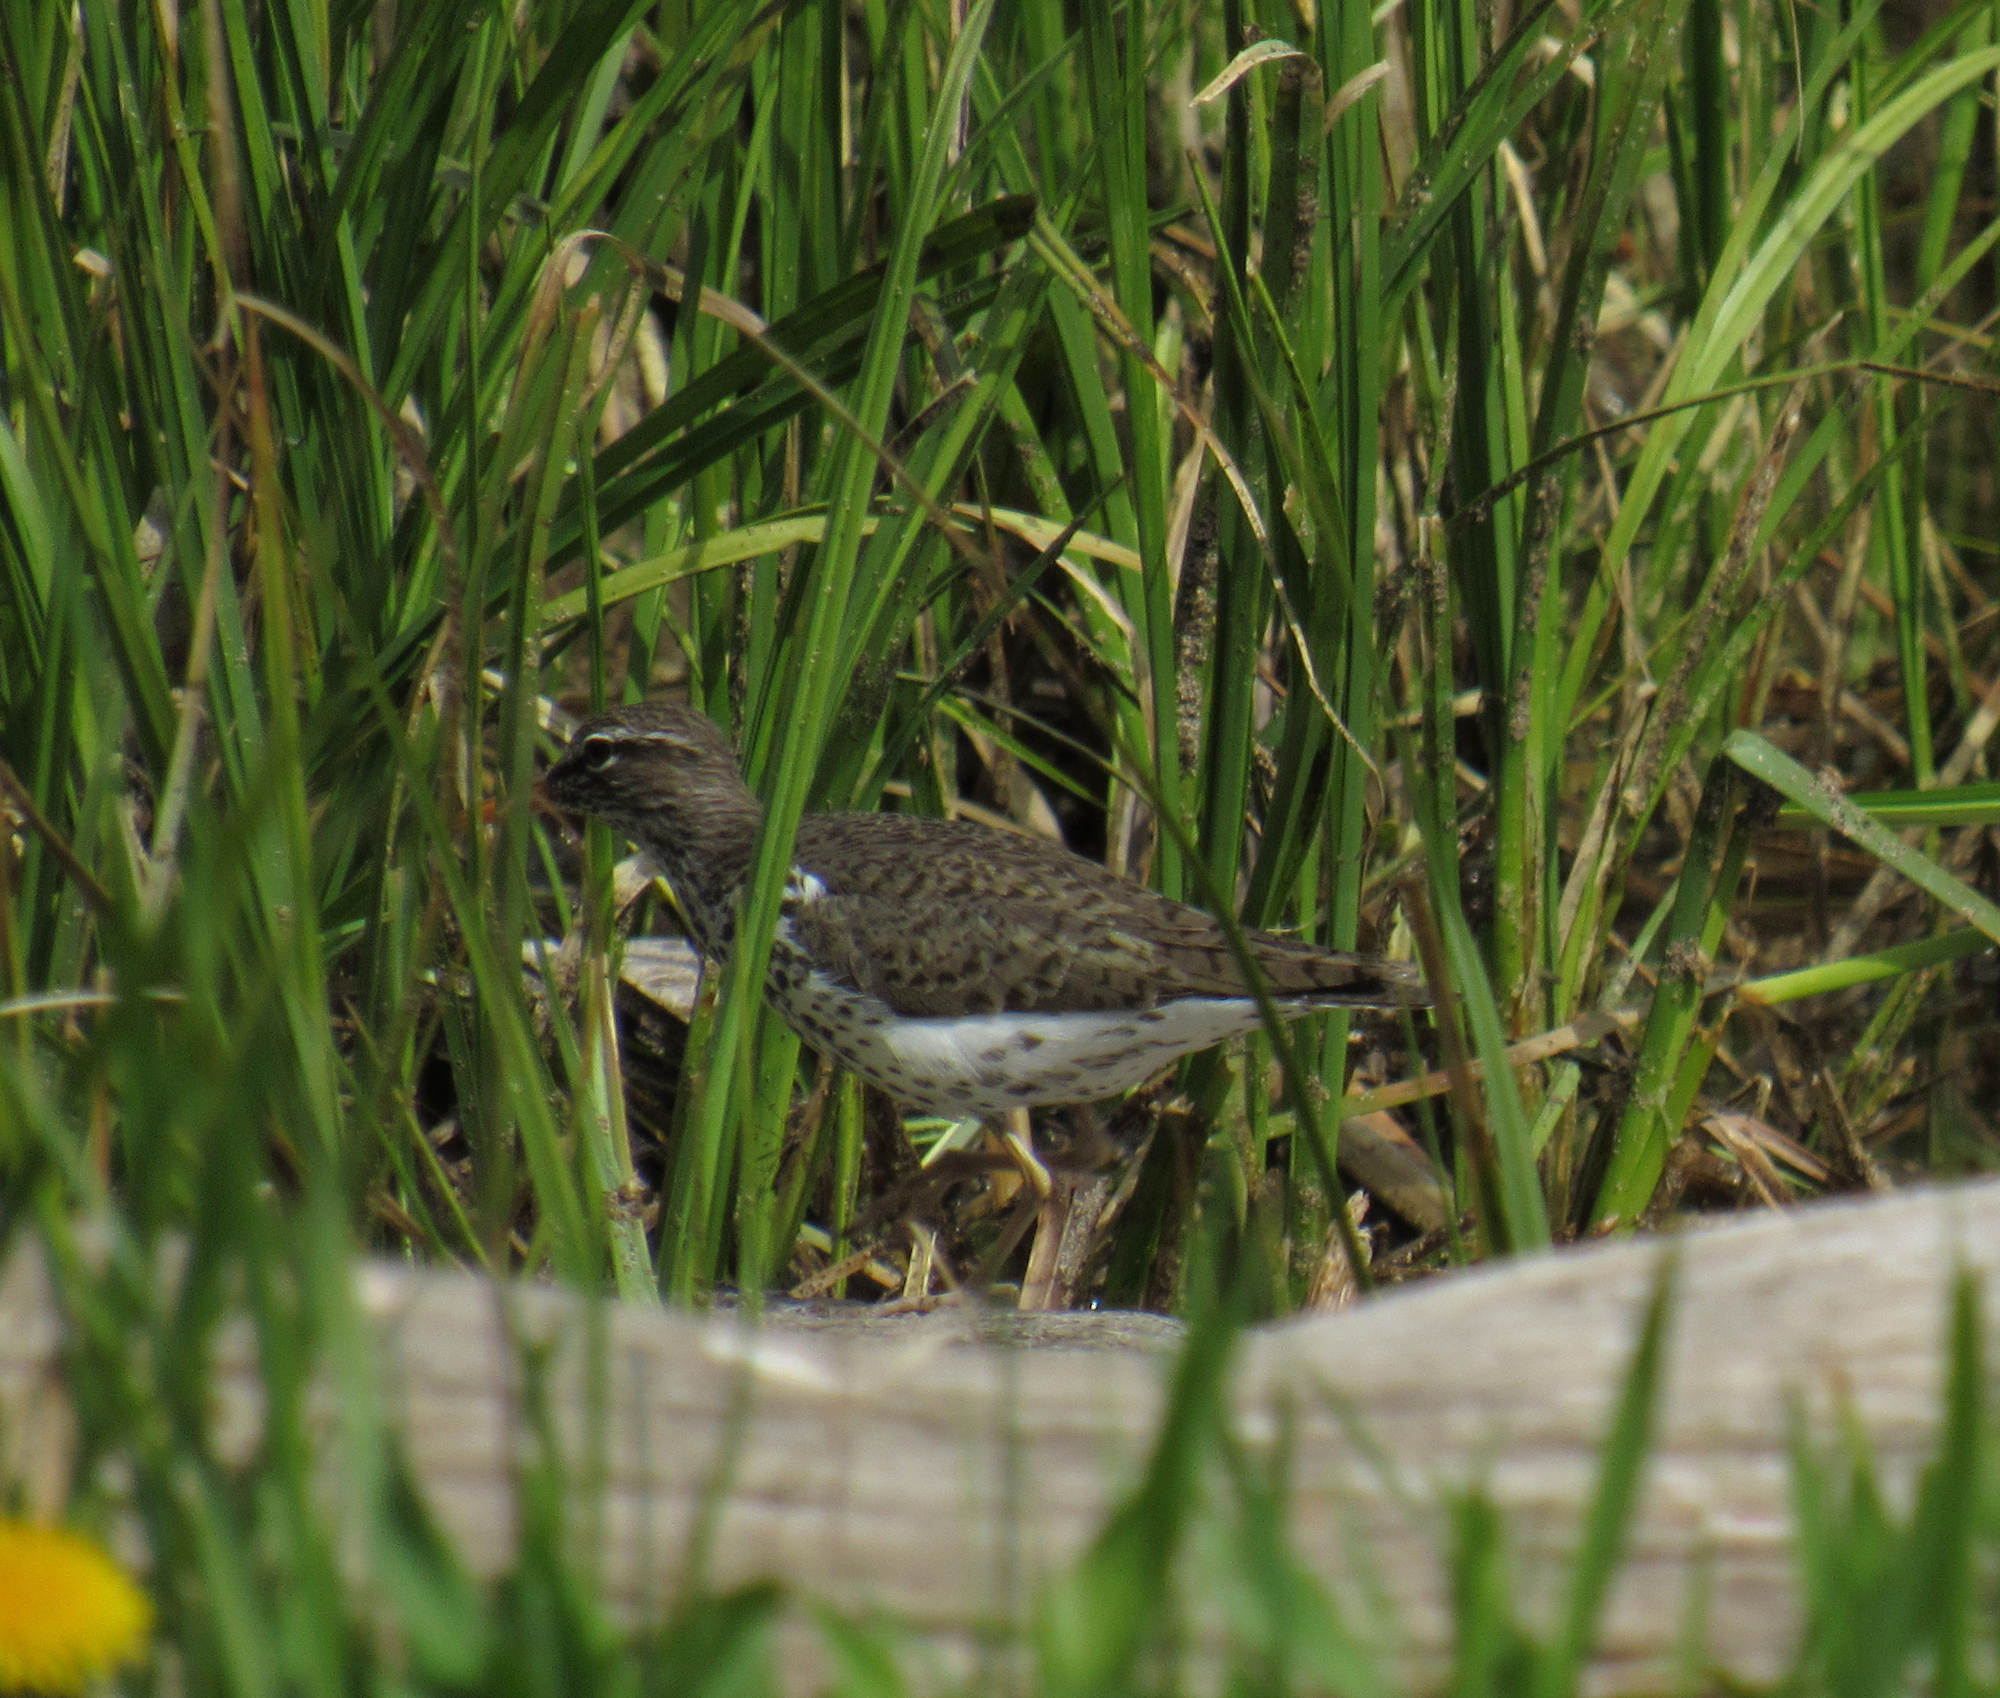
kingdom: Animalia
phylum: Chordata
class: Aves
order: Charadriiformes
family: Scolopacidae
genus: Actitis
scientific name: Actitis macularius
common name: Spotted sandpiper
